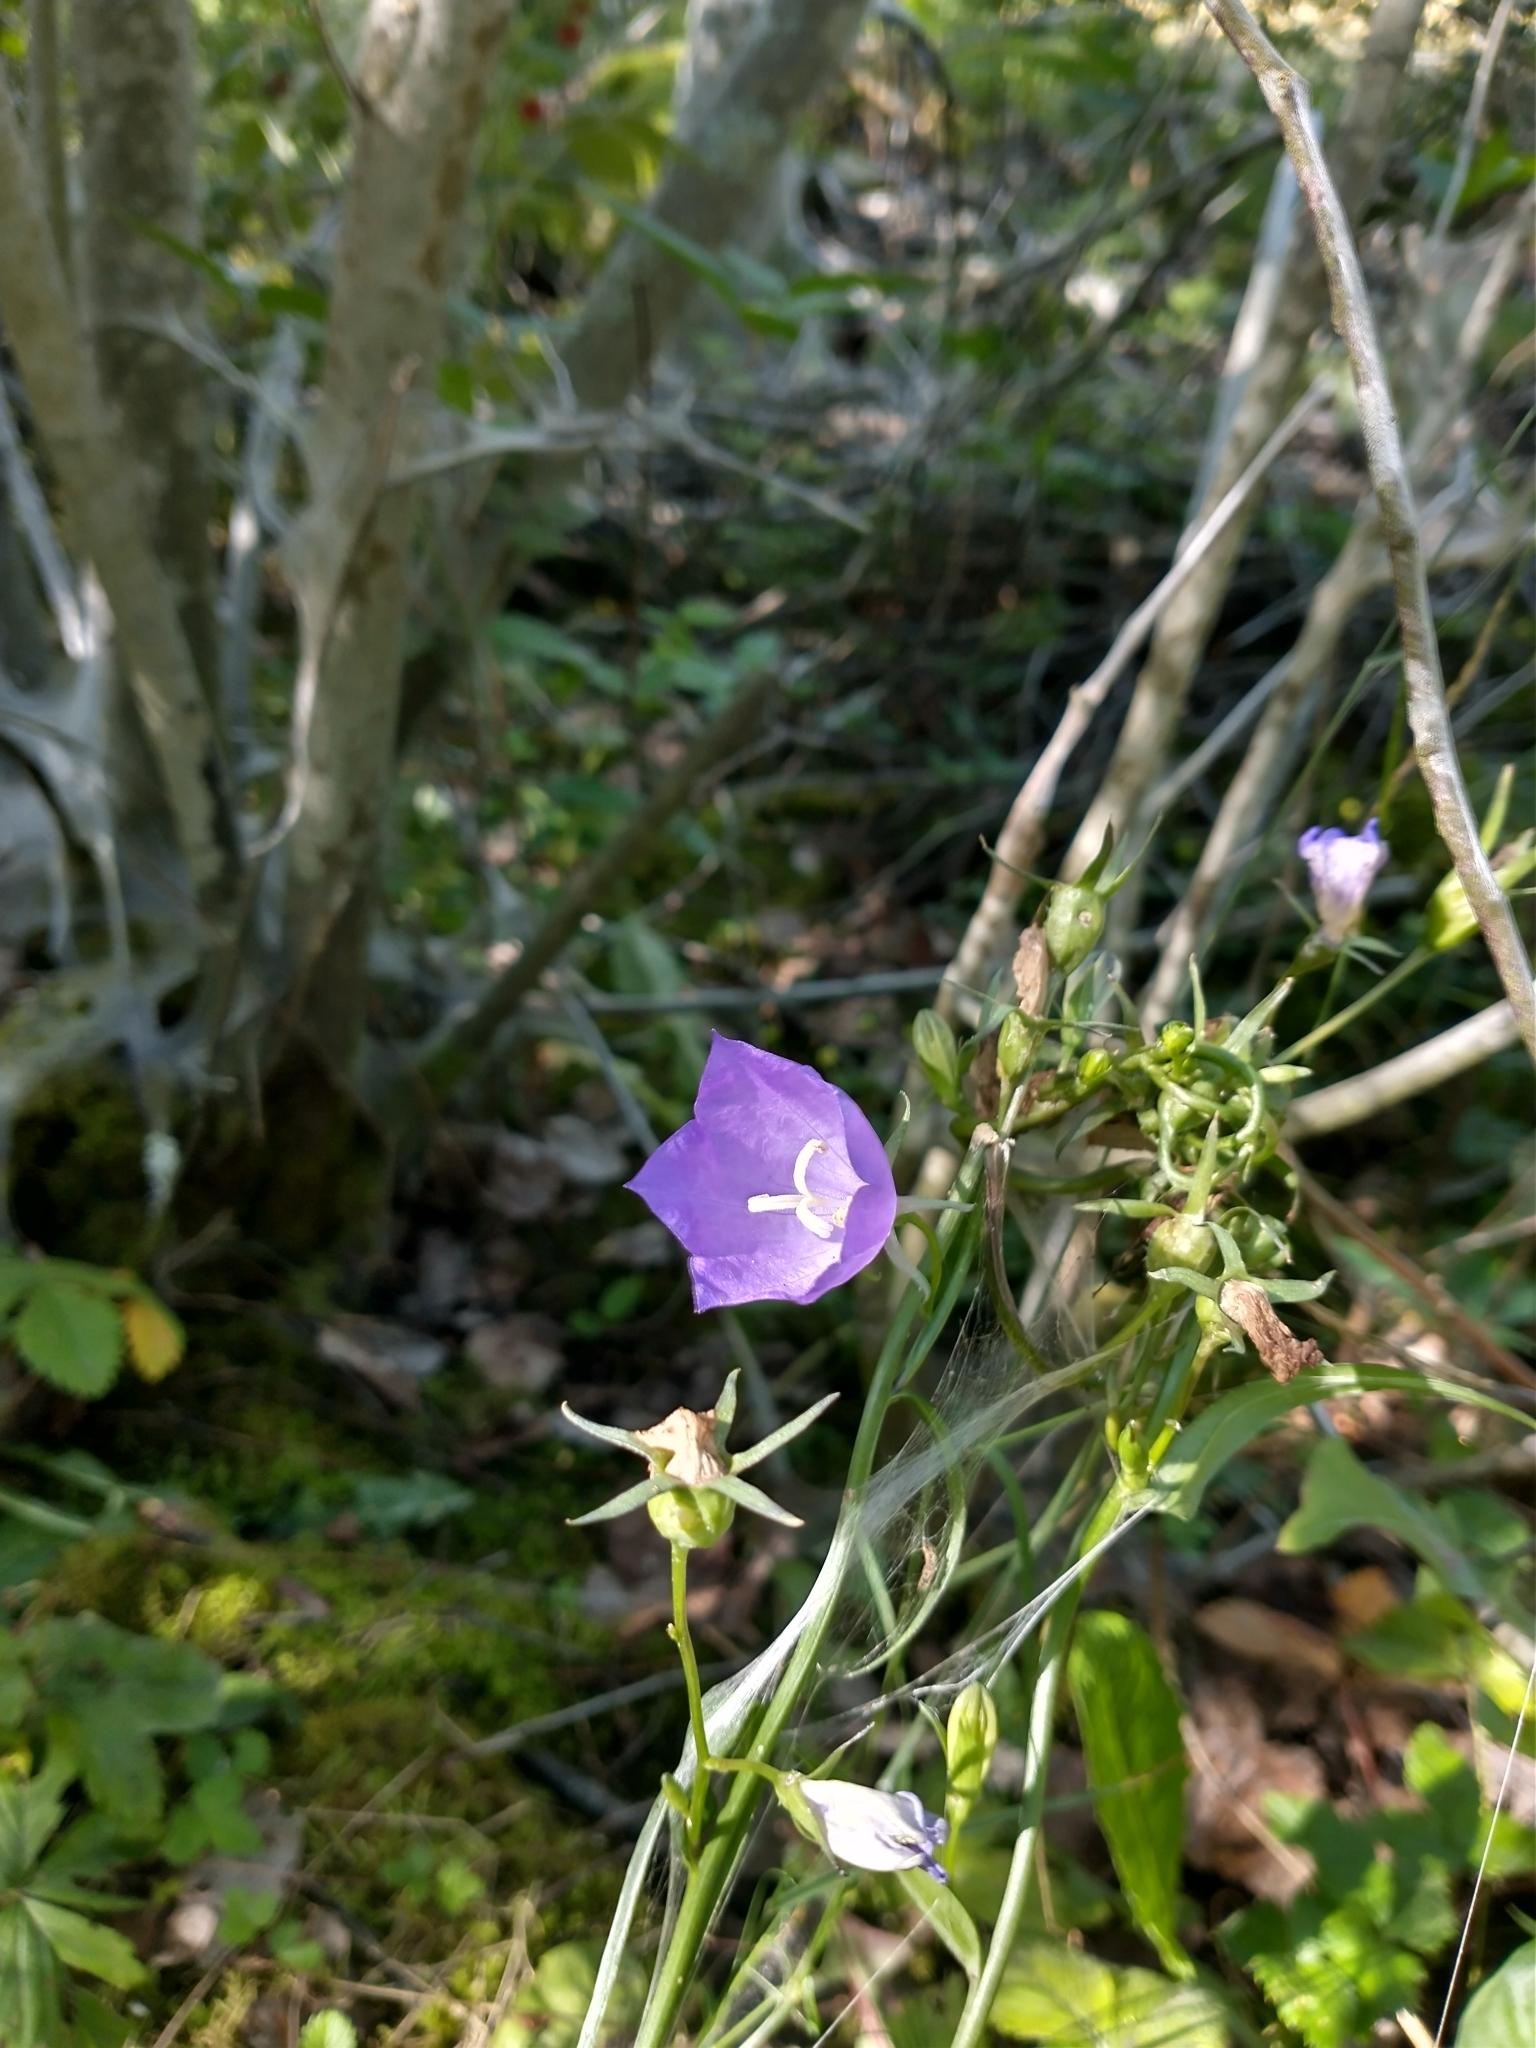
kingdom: Plantae
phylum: Tracheophyta
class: Magnoliopsida
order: Asterales
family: Campanulaceae
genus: Campanula
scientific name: Campanula persicifolia
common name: Peach-leaved bellflower
